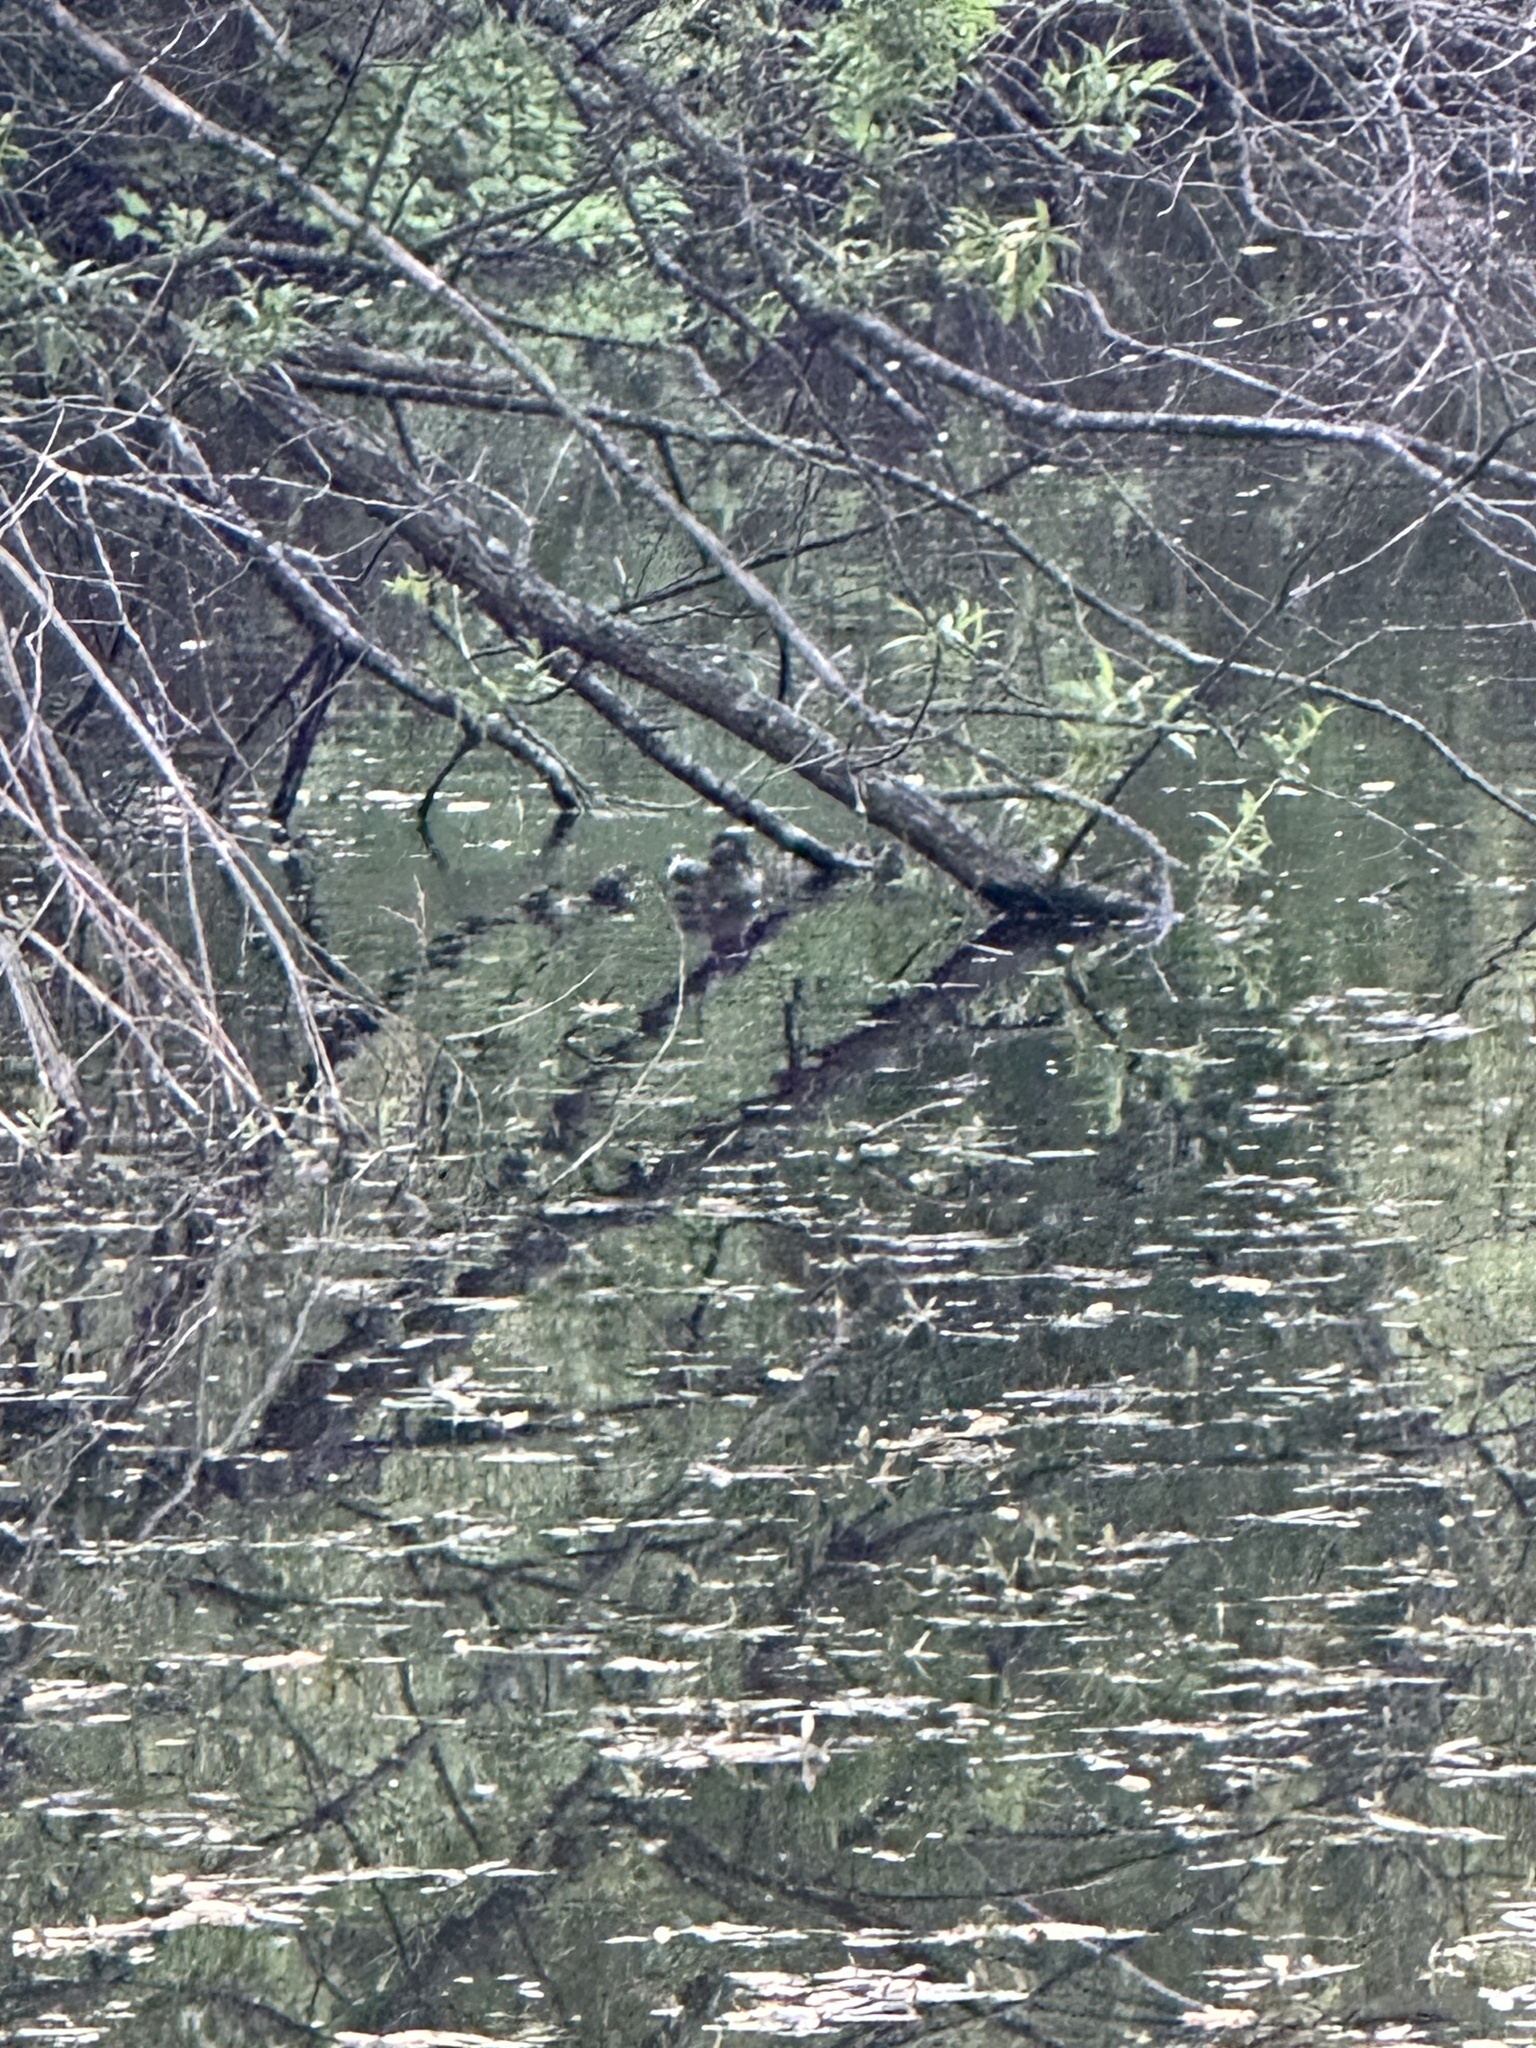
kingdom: Animalia
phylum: Chordata
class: Aves
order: Anseriformes
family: Anatidae
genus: Aix
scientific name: Aix sponsa
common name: Wood duck
